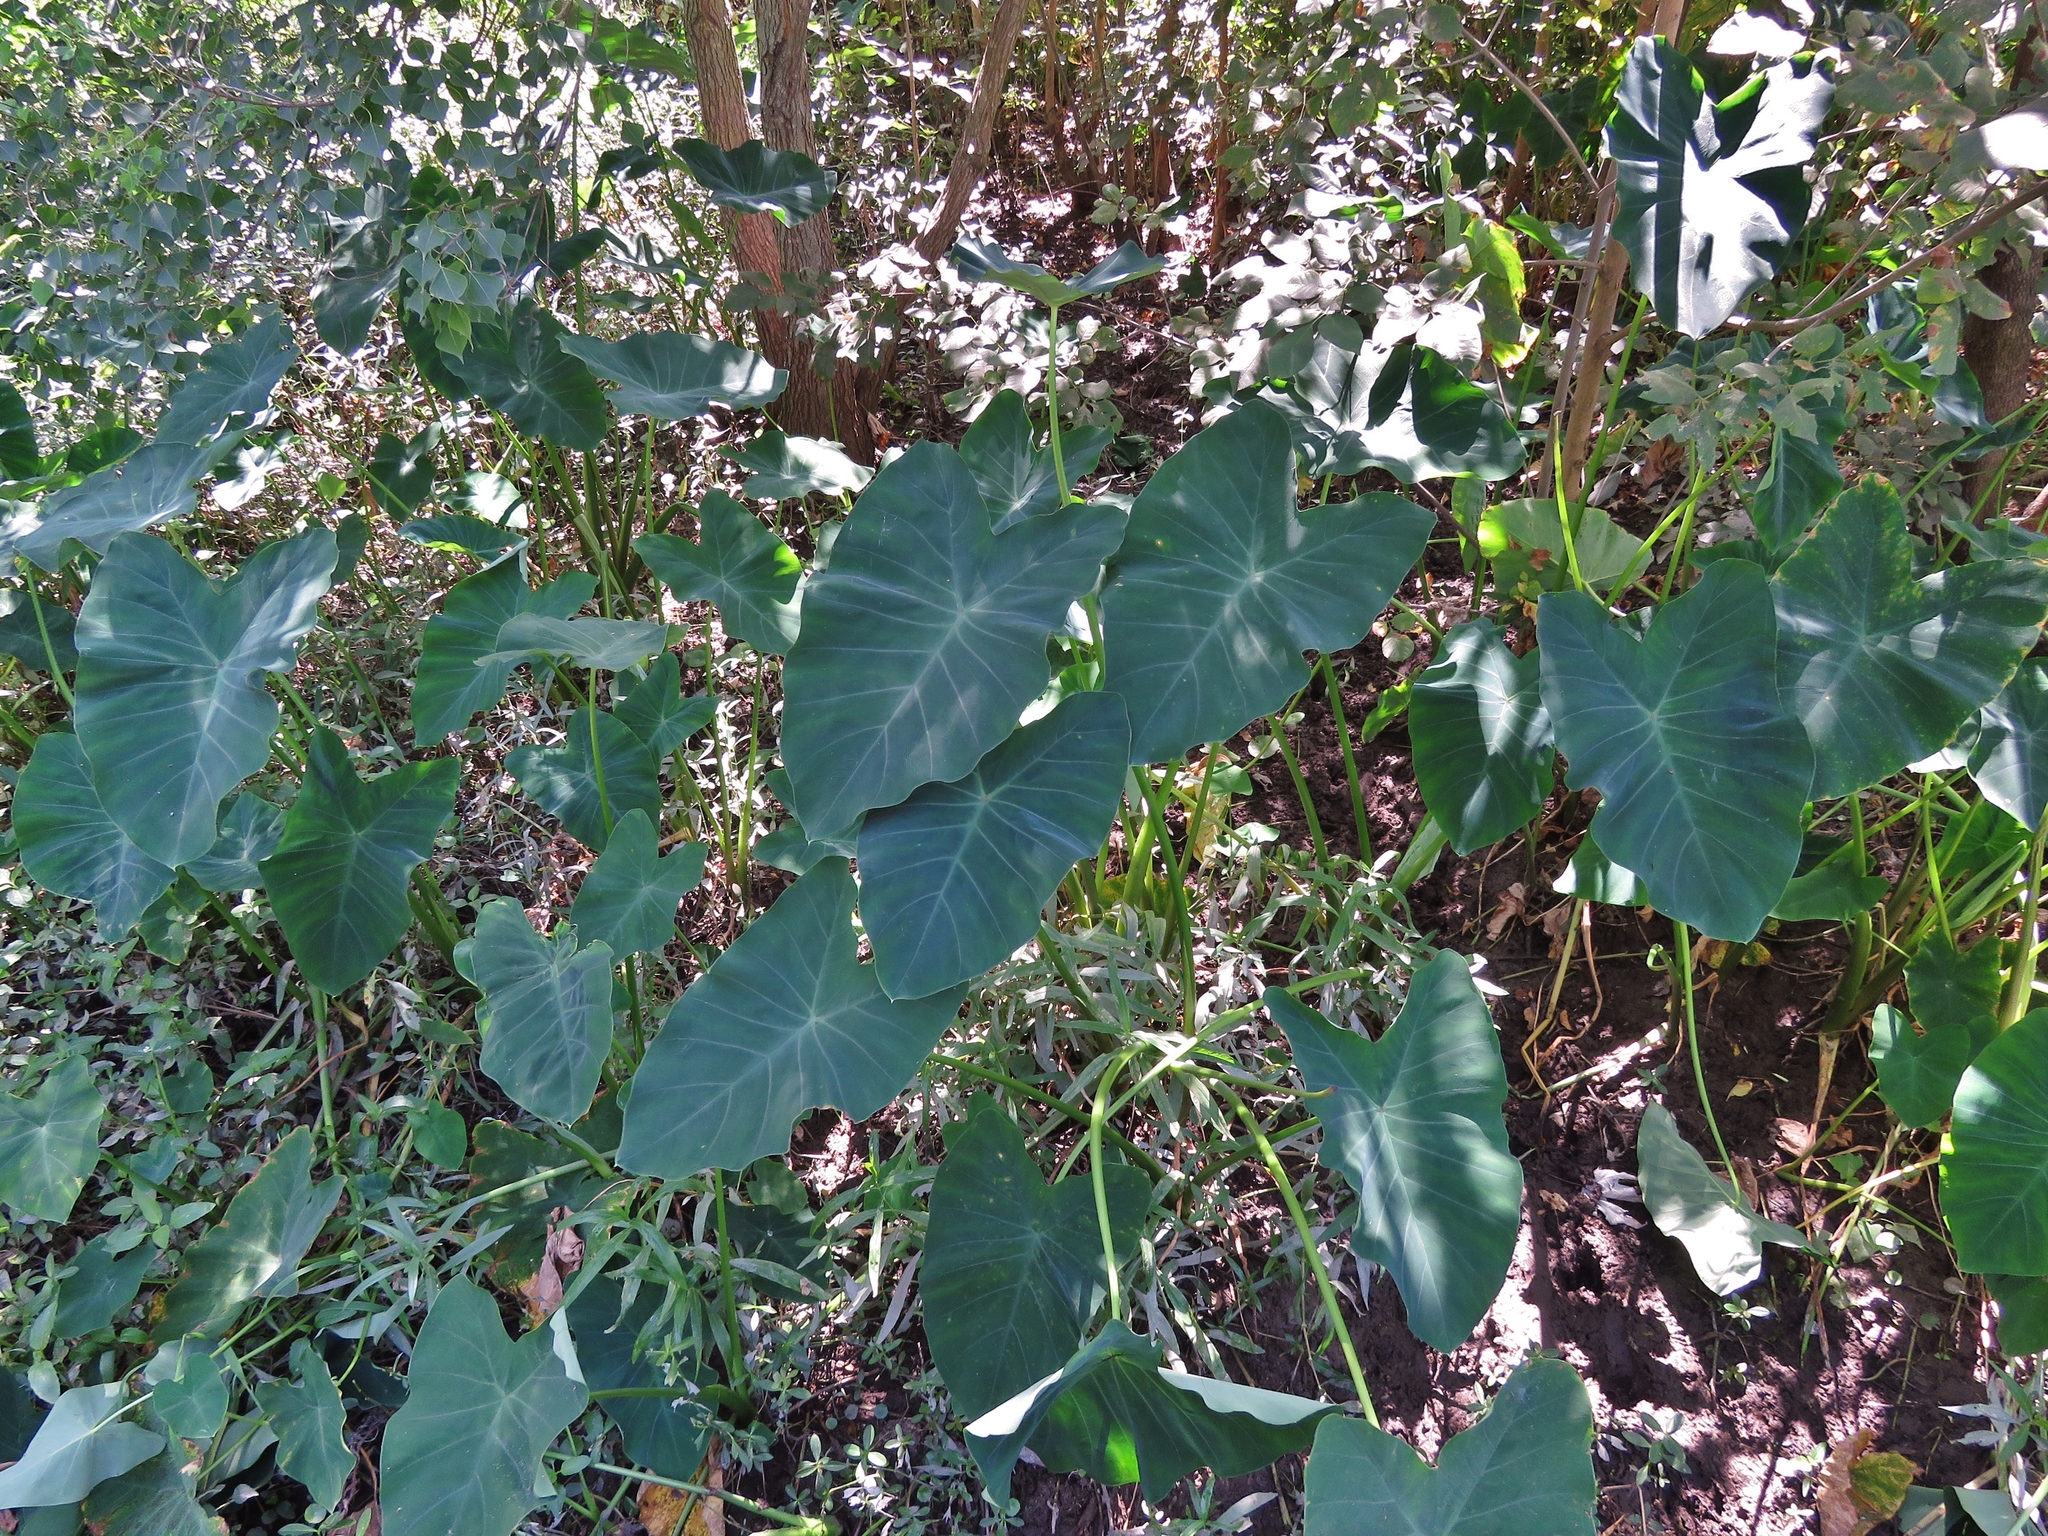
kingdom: Plantae
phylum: Tracheophyta
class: Liliopsida
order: Alismatales
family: Araceae
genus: Colocasia
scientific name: Colocasia esculenta
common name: Taro
